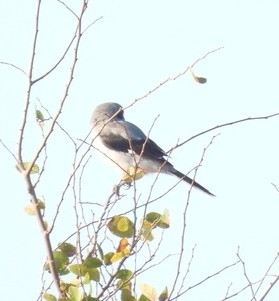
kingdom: Animalia
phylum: Chordata
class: Aves
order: Passeriformes
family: Laniidae
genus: Lanius
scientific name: Lanius ludovicianus
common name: Loggerhead shrike
